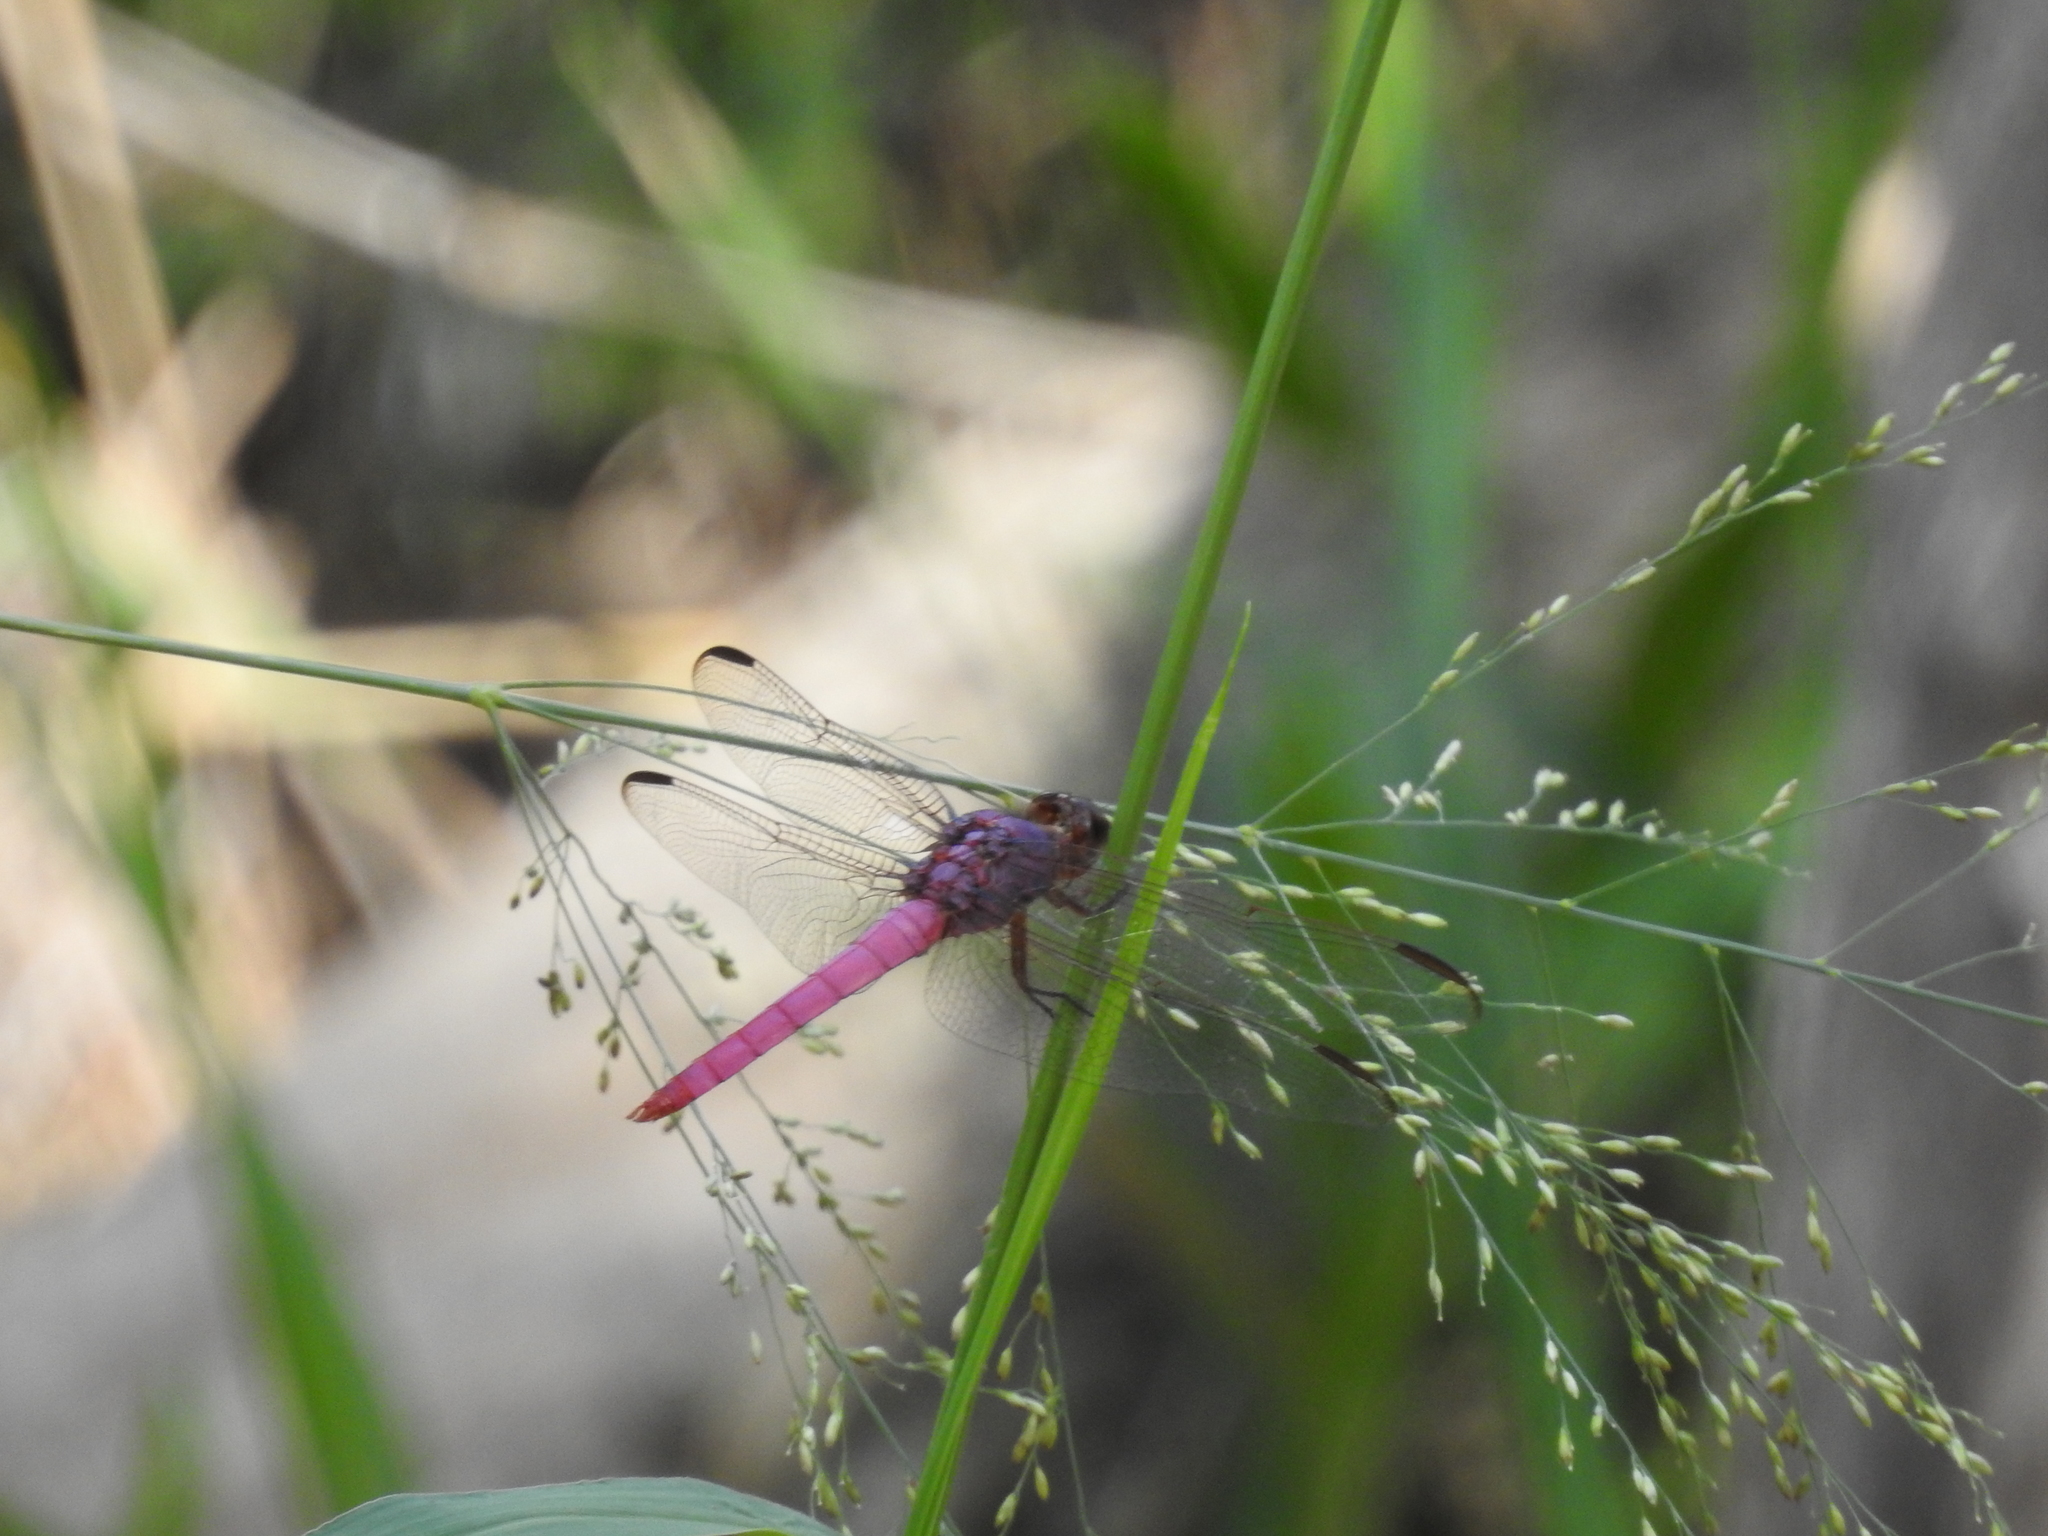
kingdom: Animalia
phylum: Arthropoda
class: Insecta
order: Odonata
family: Libellulidae
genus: Orthemis
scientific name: Orthemis ferruginea
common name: Roseate skimmer
